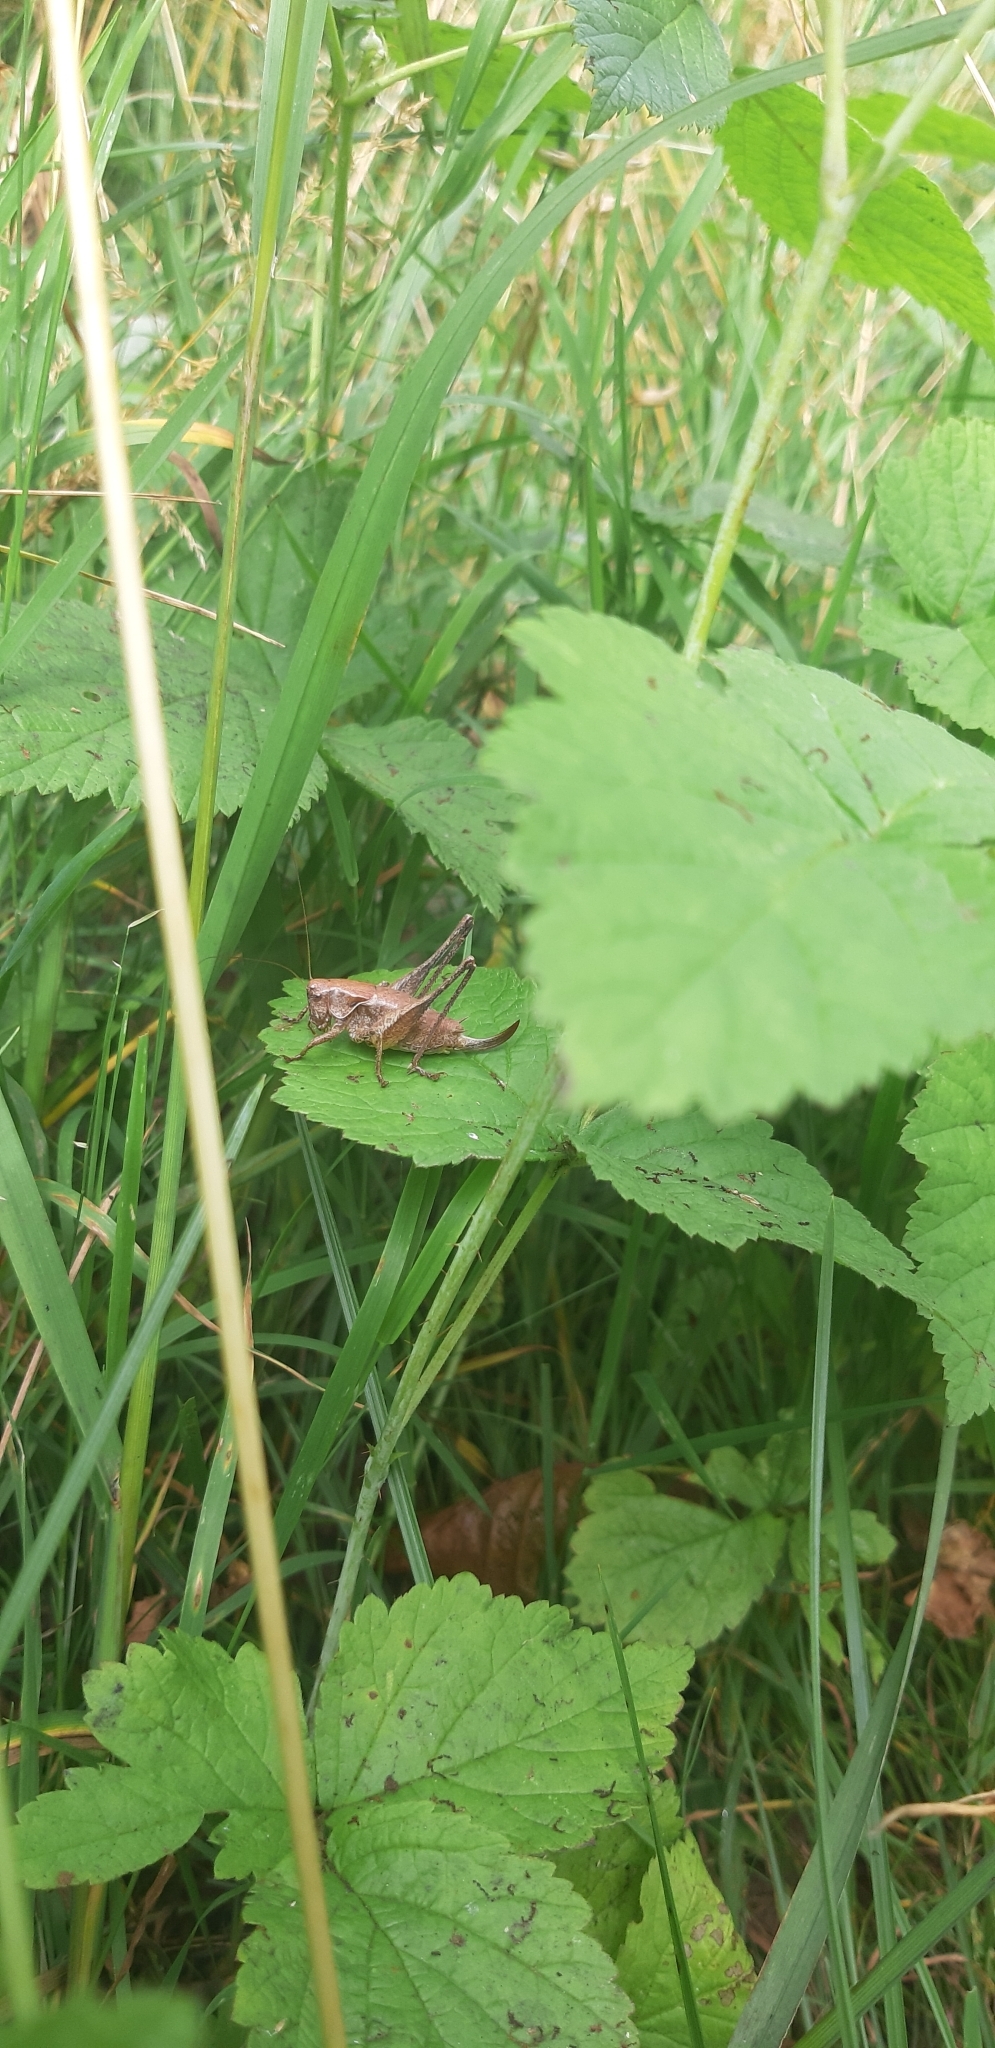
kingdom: Animalia
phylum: Arthropoda
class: Insecta
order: Orthoptera
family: Tettigoniidae
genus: Pholidoptera
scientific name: Pholidoptera griseoaptera
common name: Dark bush-cricket
